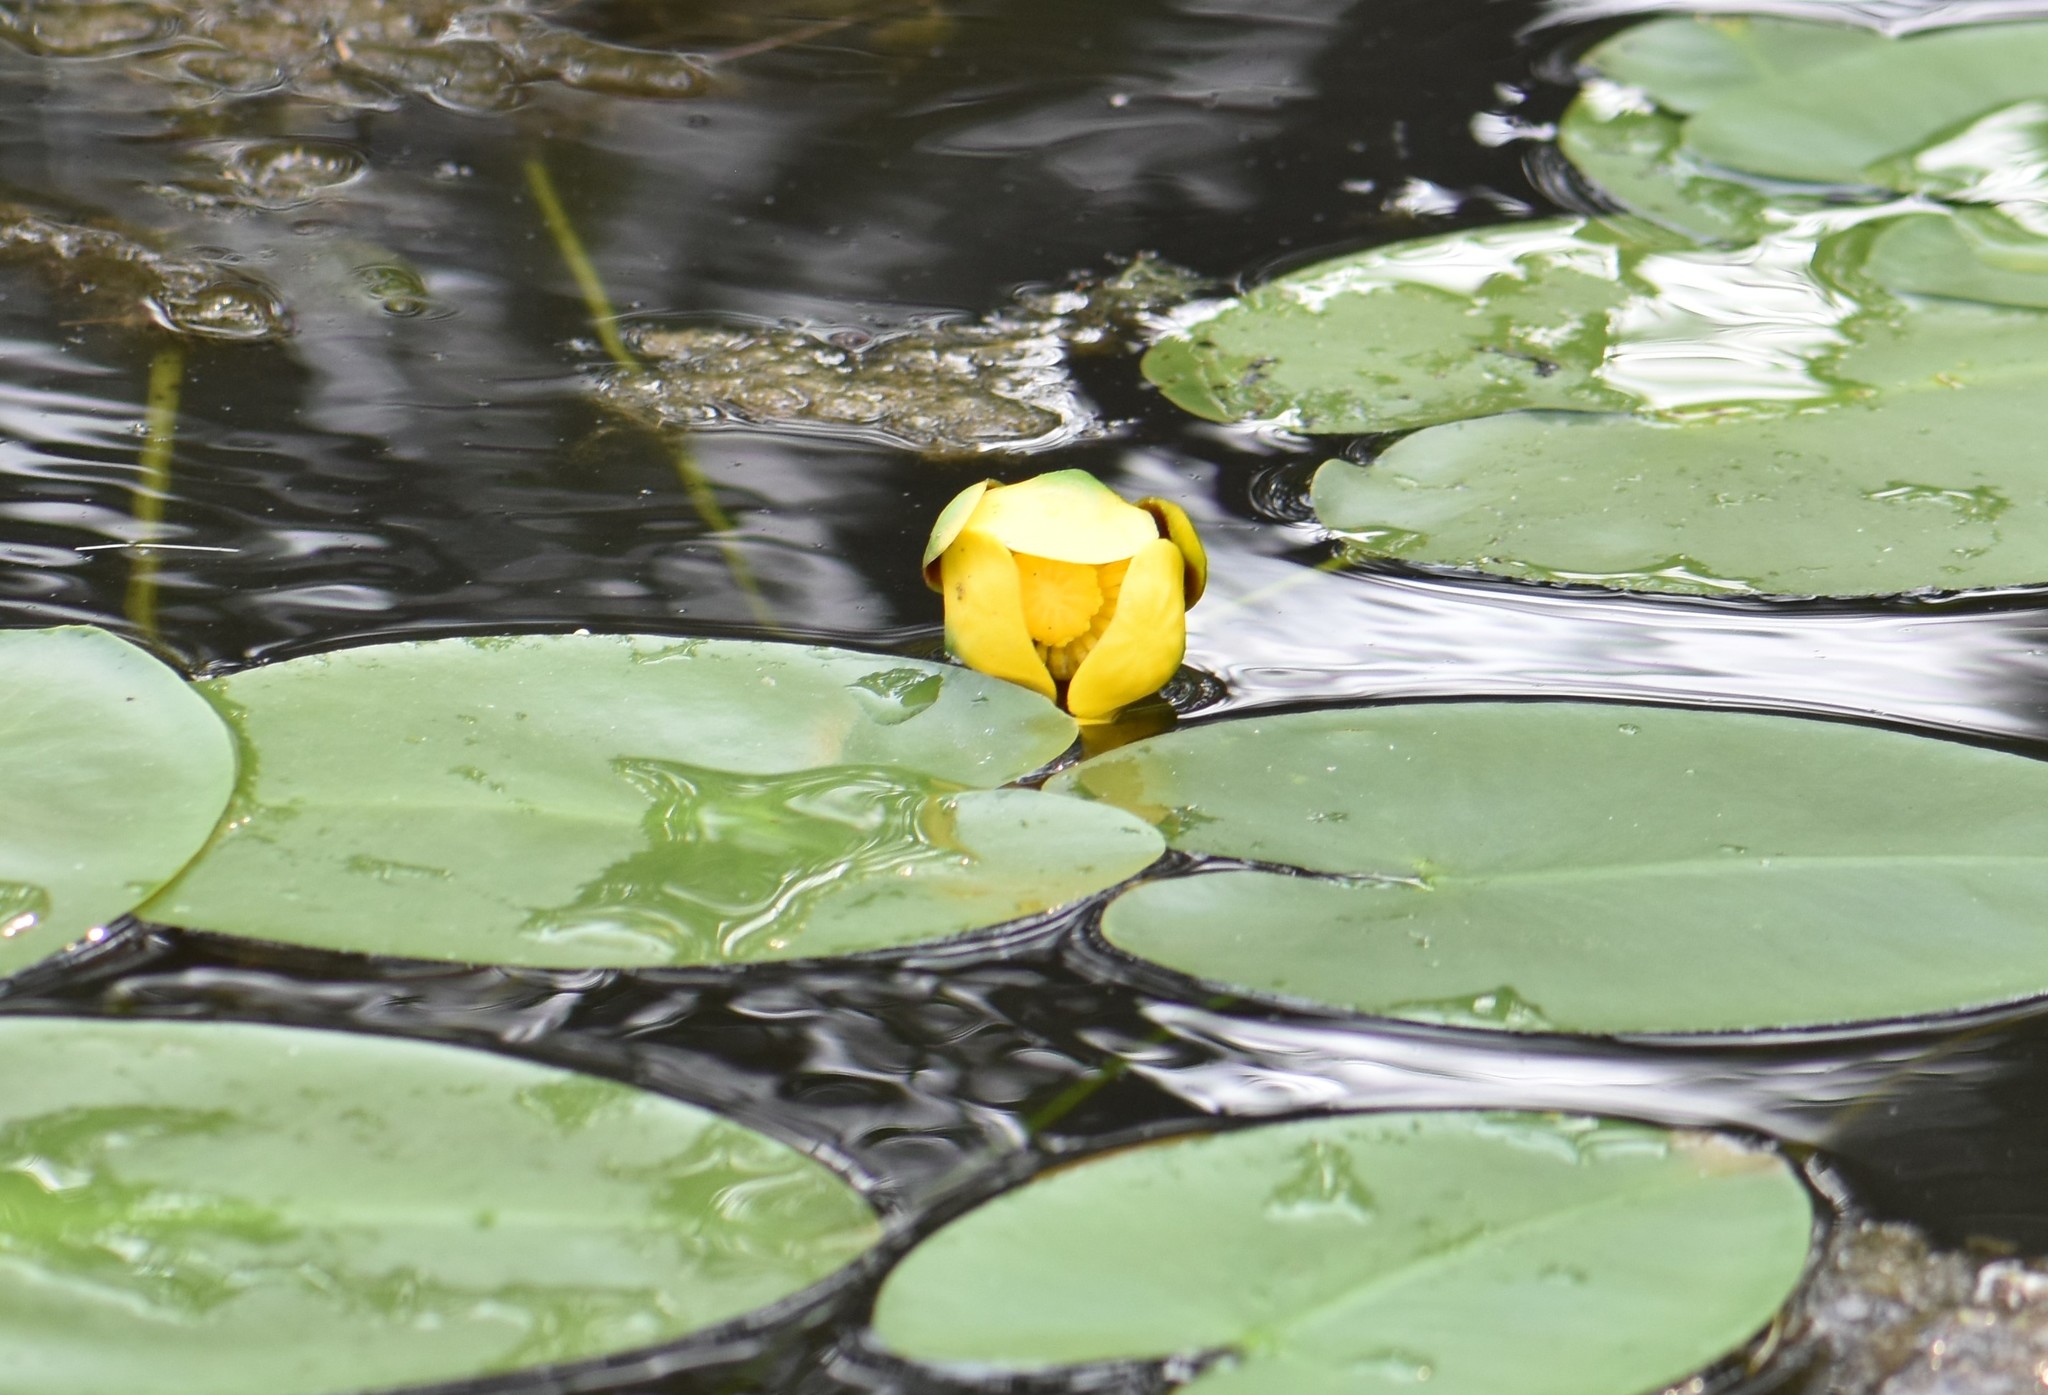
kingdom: Plantae
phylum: Tracheophyta
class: Magnoliopsida
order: Nymphaeales
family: Nymphaeaceae
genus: Nuphar
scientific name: Nuphar variegata
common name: Beaver-root
